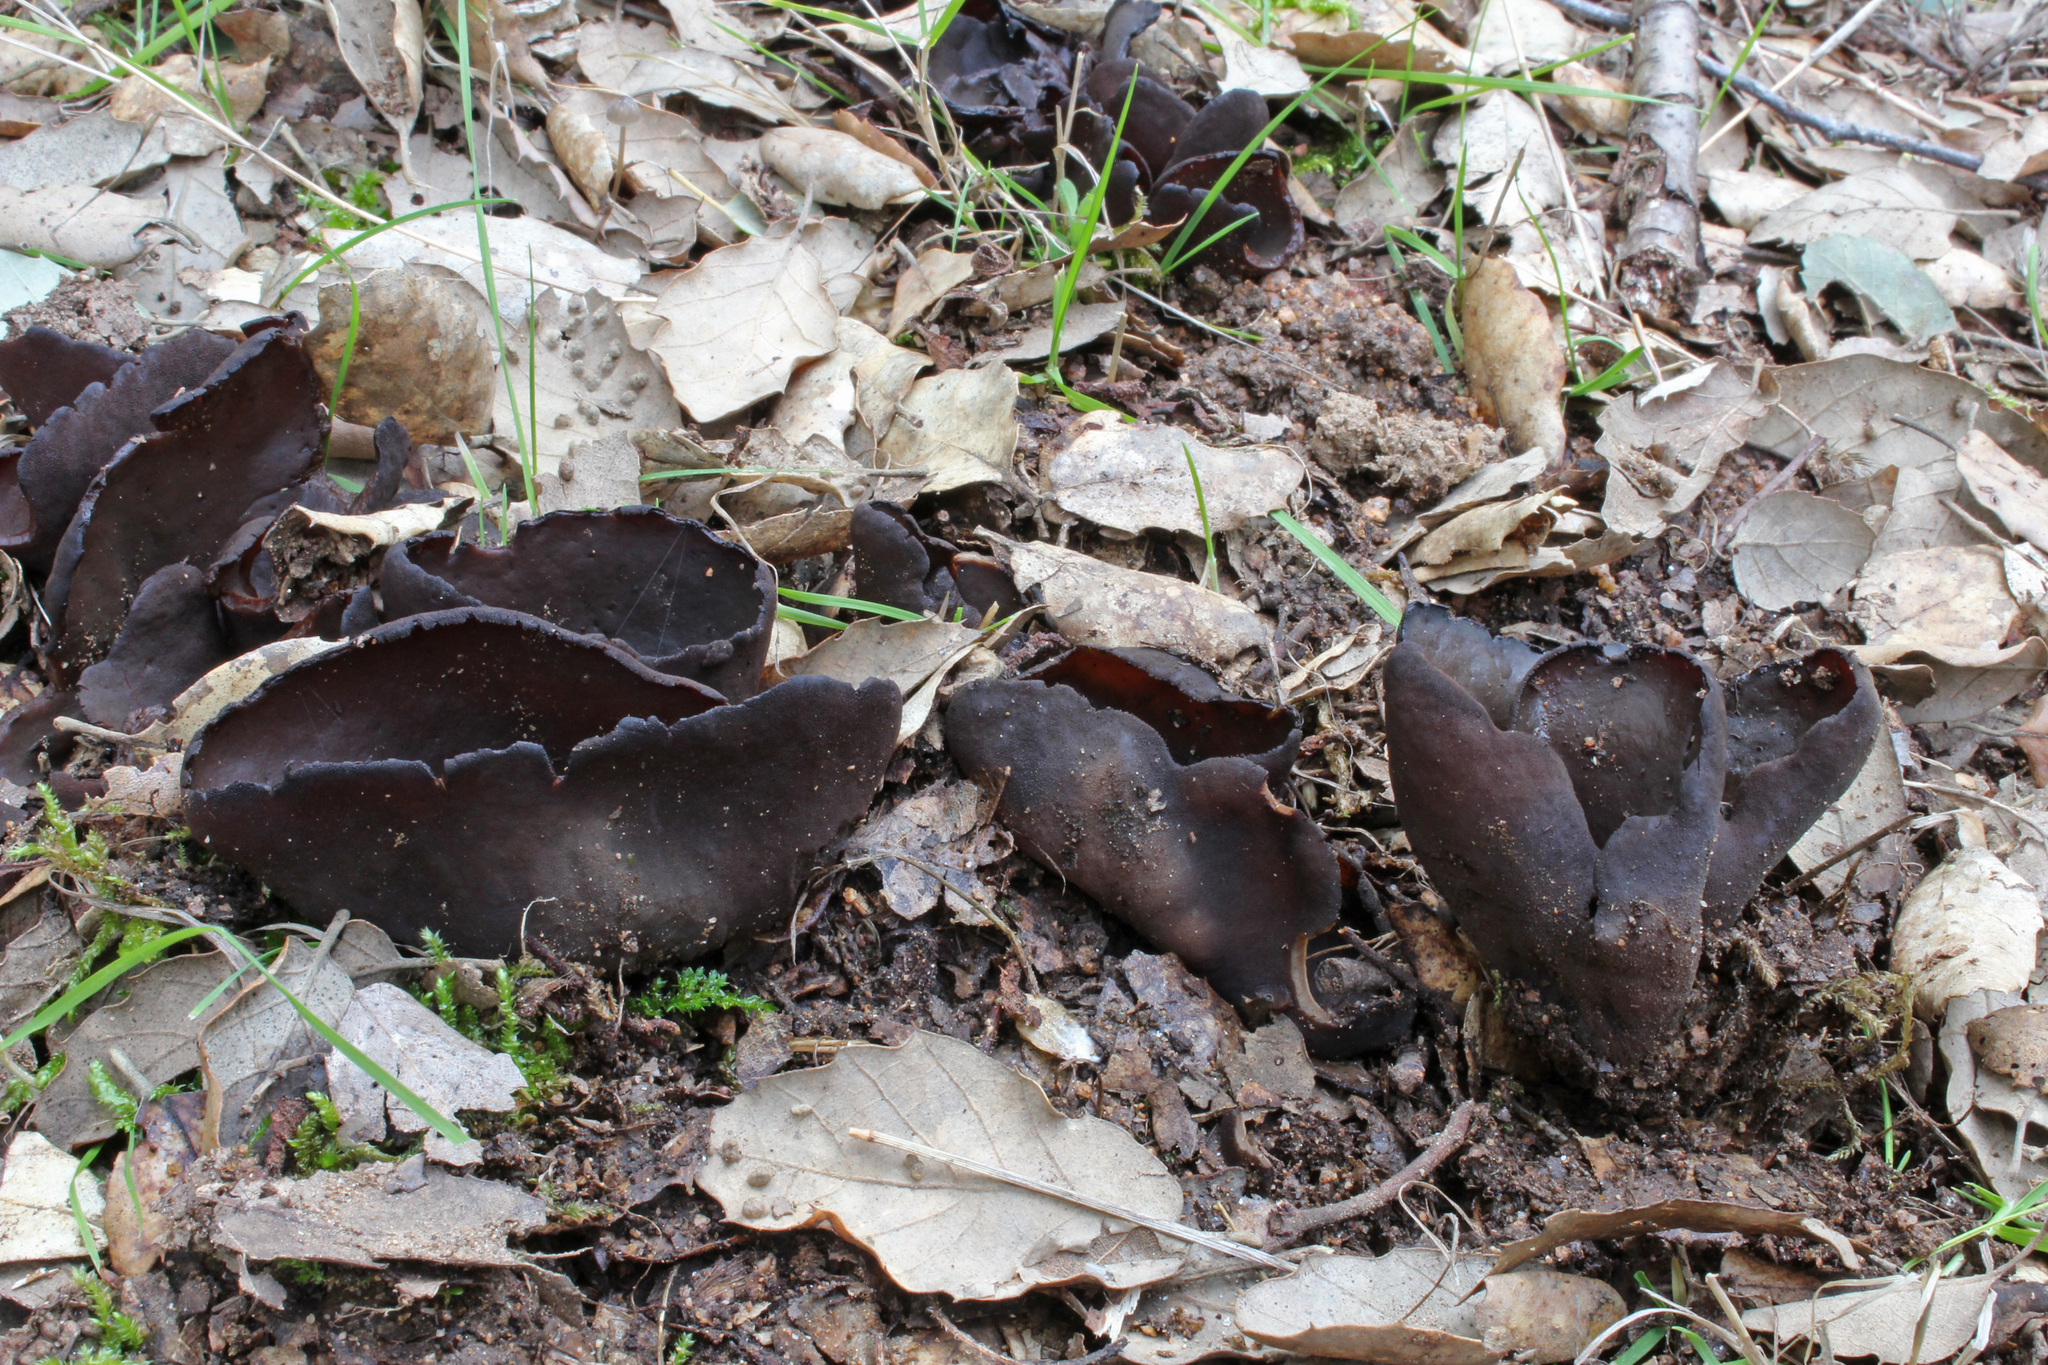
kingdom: Fungi
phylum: Ascomycota
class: Pezizomycetes
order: Pezizales
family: Otideaceae
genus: Otidea
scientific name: Otidea bufonia
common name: Toad's ear
